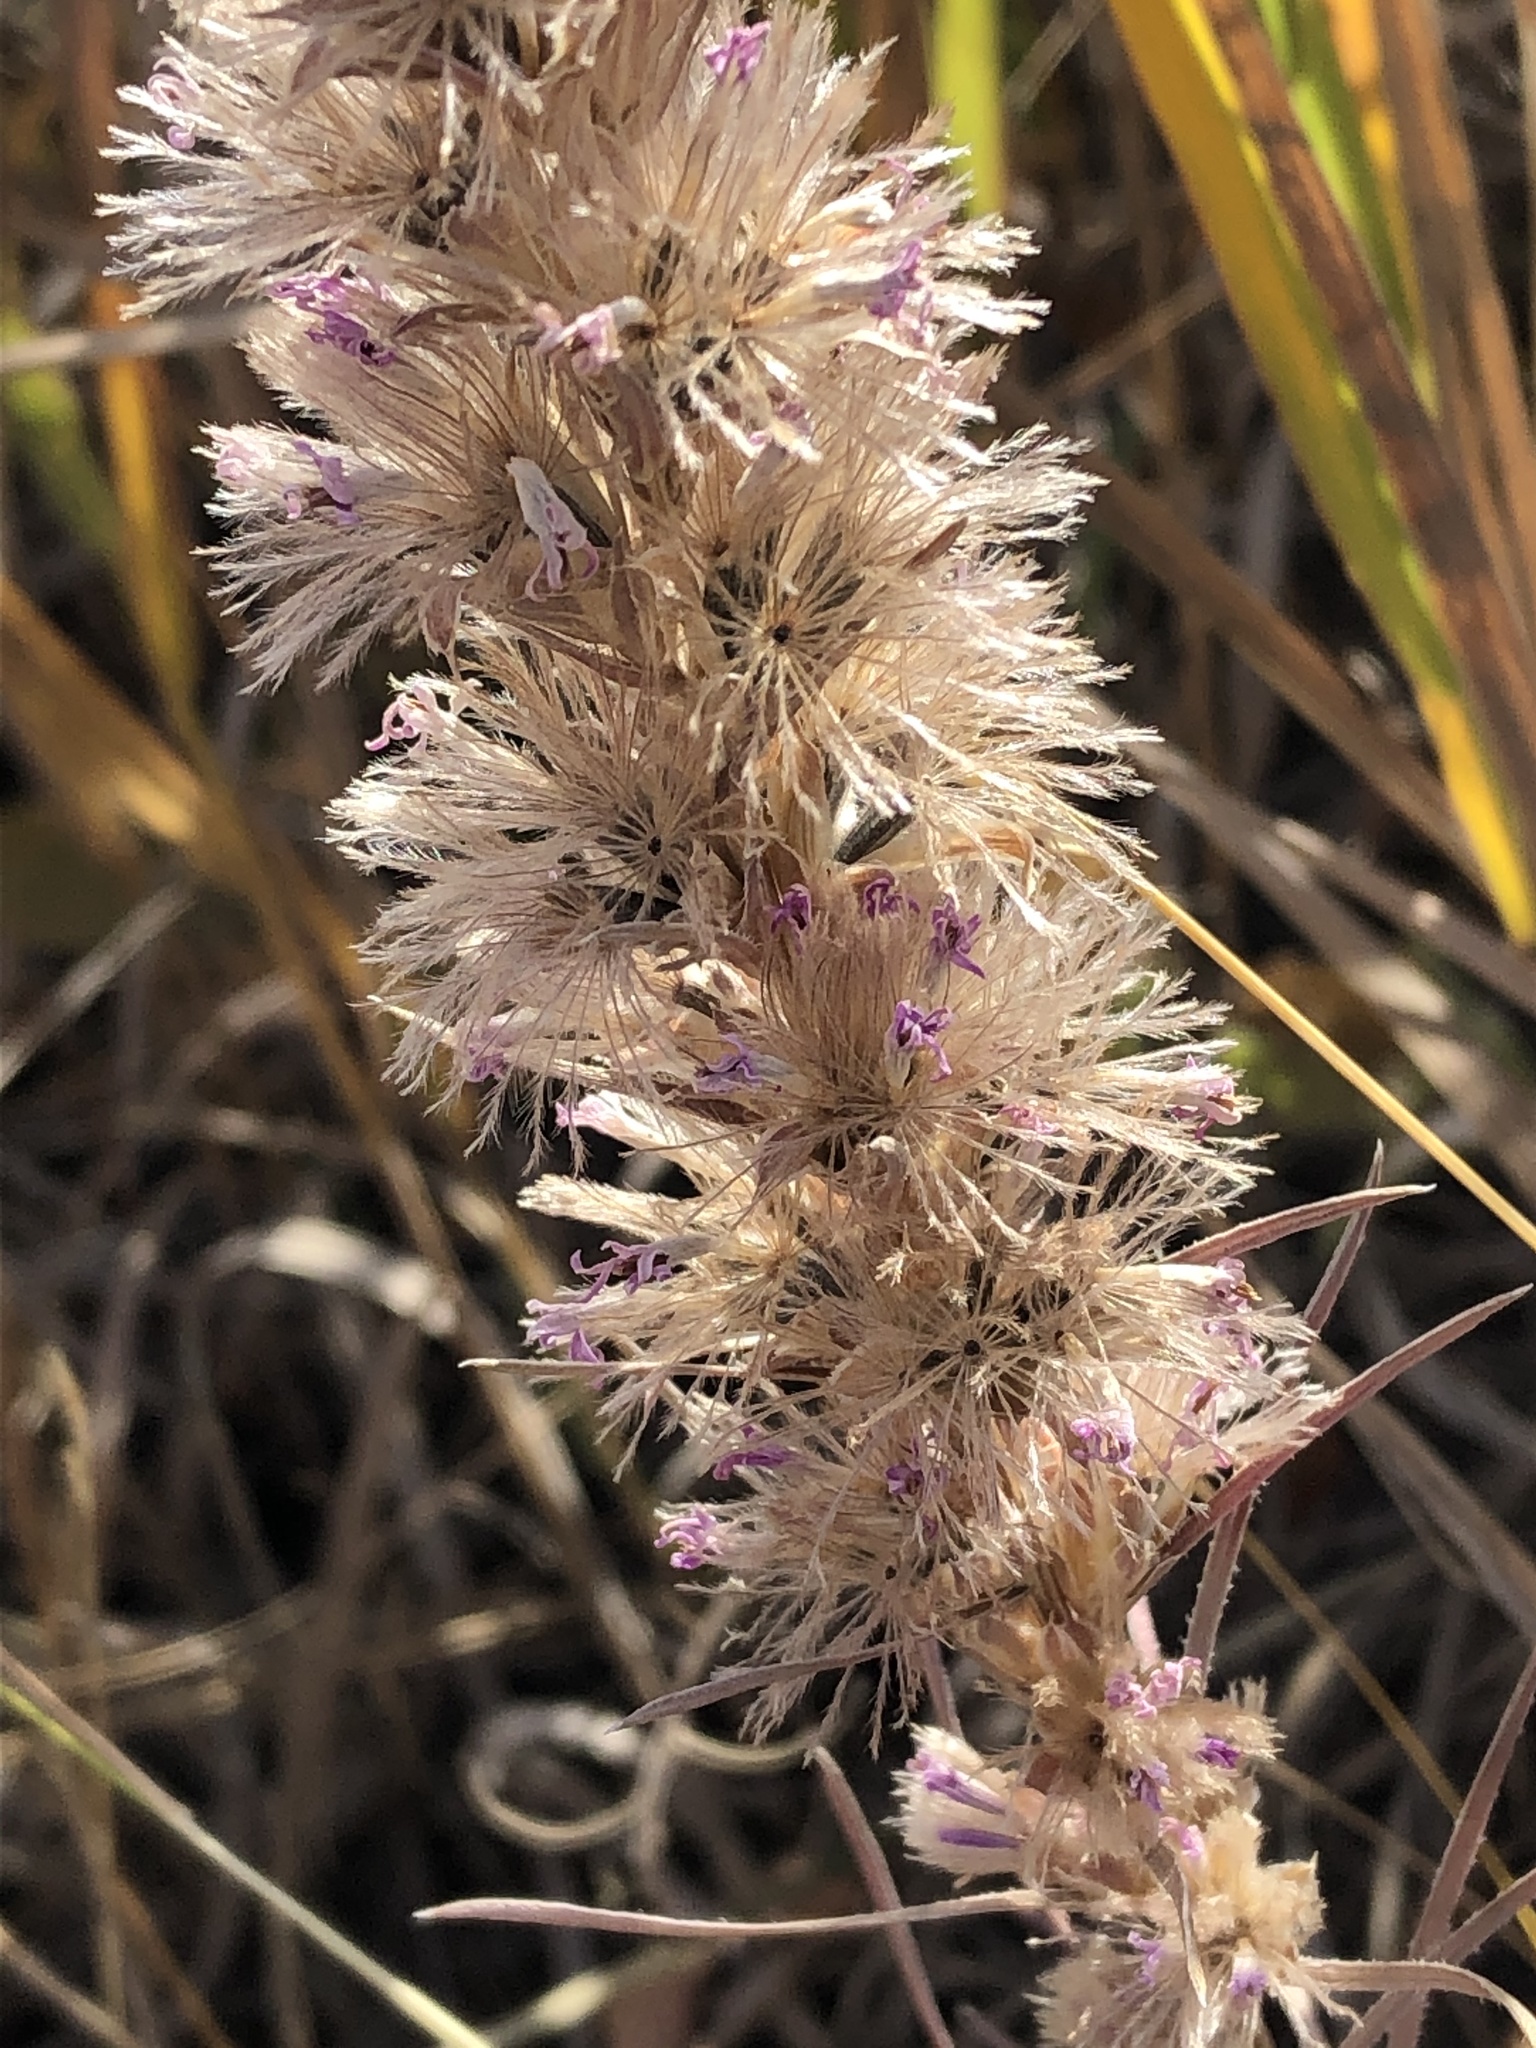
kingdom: Plantae
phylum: Tracheophyta
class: Magnoliopsida
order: Asterales
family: Asteraceae
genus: Liatris
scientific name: Liatris punctata
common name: Dotted gayfeather
